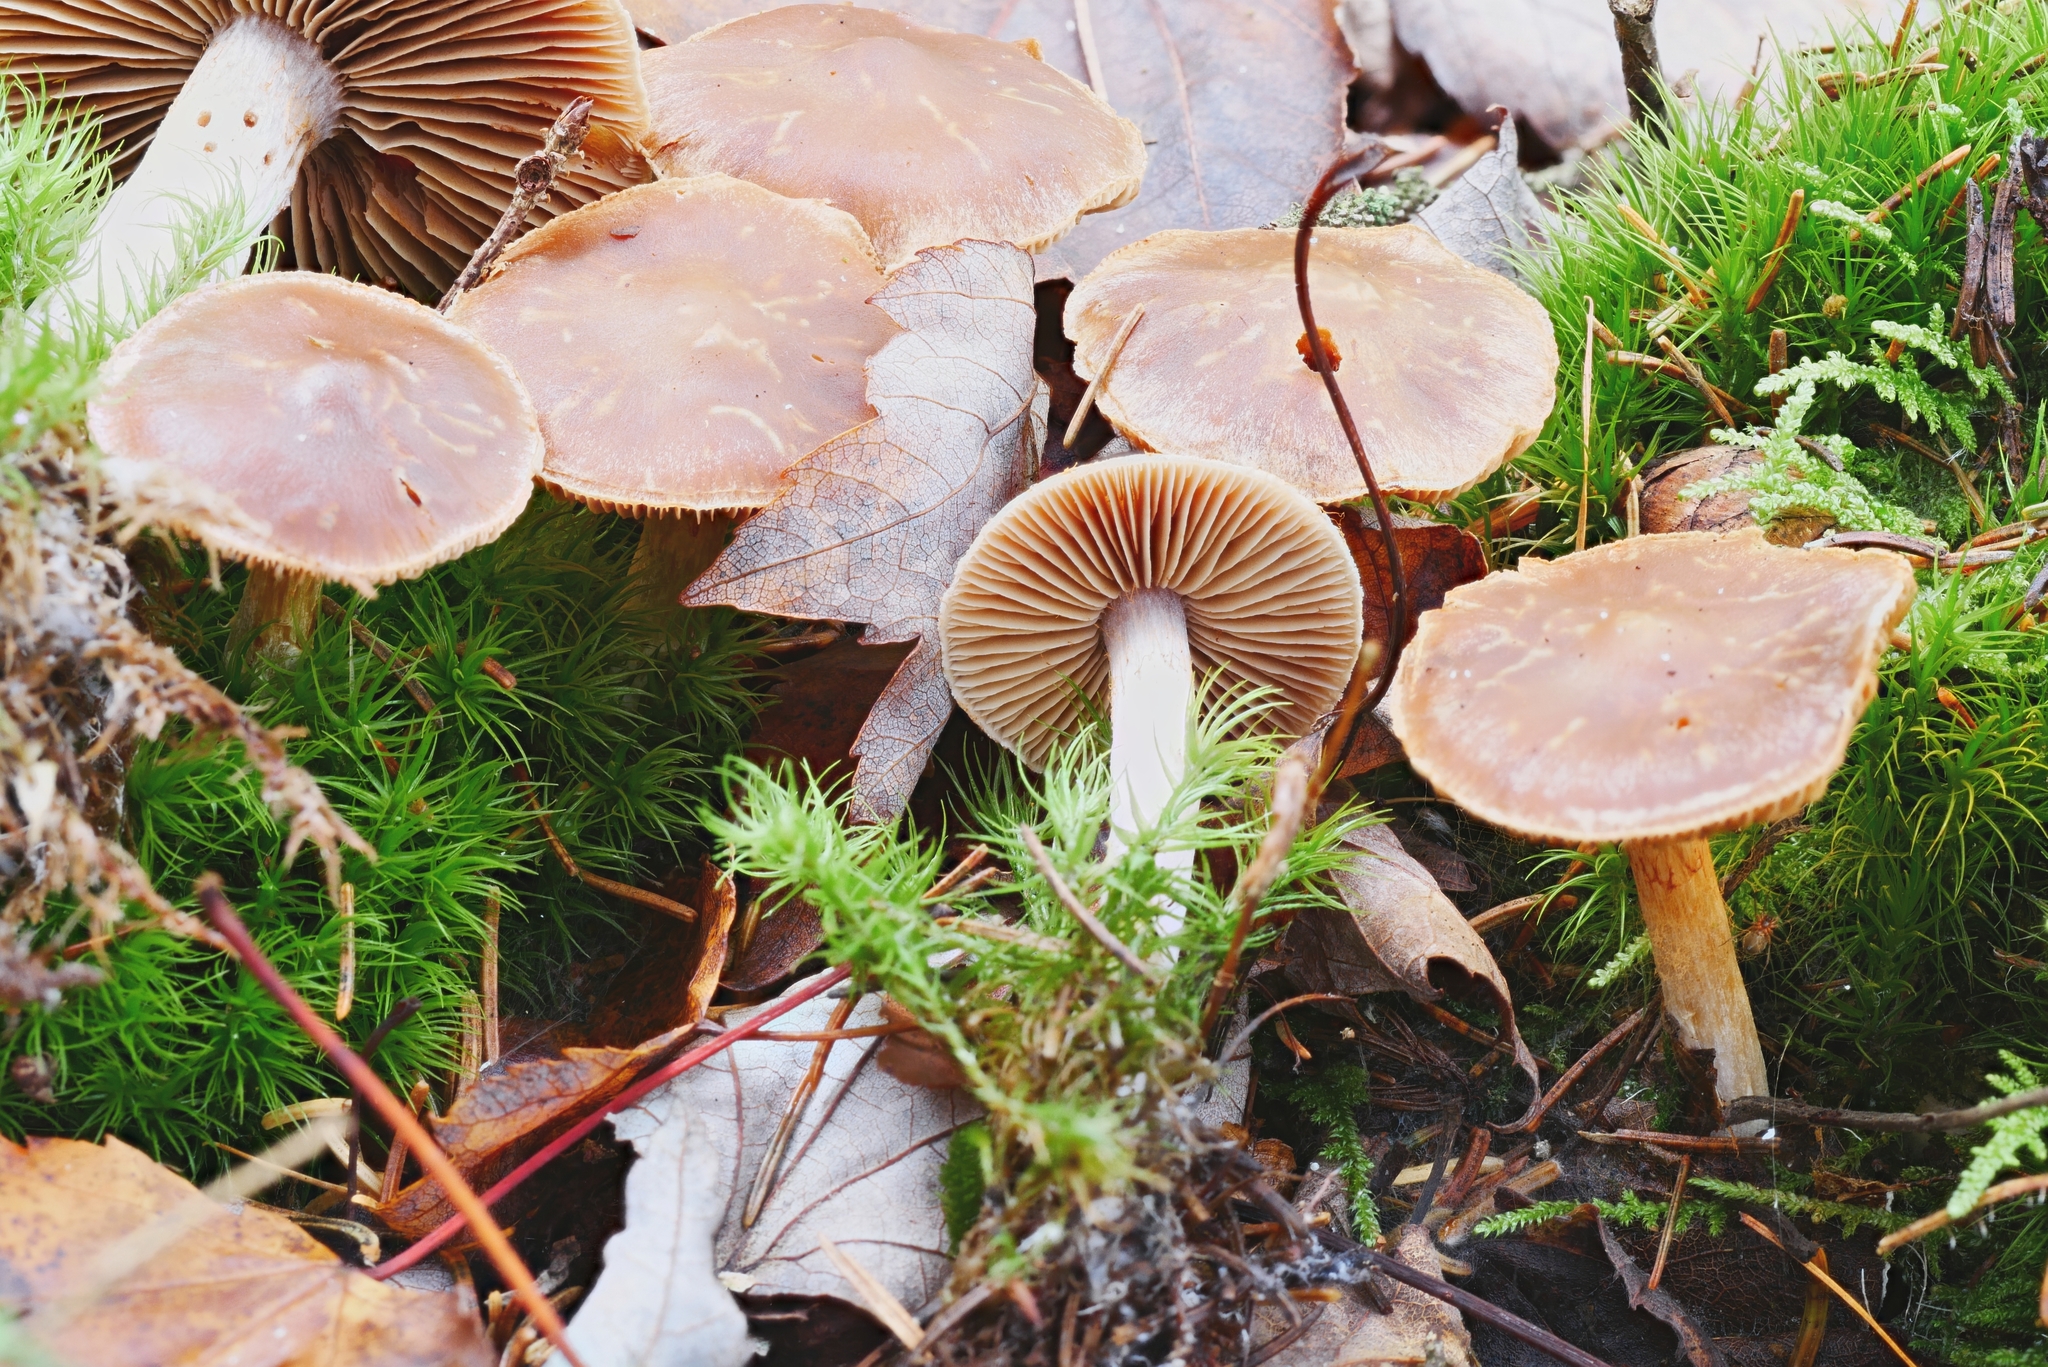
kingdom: Fungi
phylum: Basidiomycota
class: Agaricomycetes
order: Agaricales
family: Cortinariaceae
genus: Cortinarius
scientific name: Cortinarius biformis
